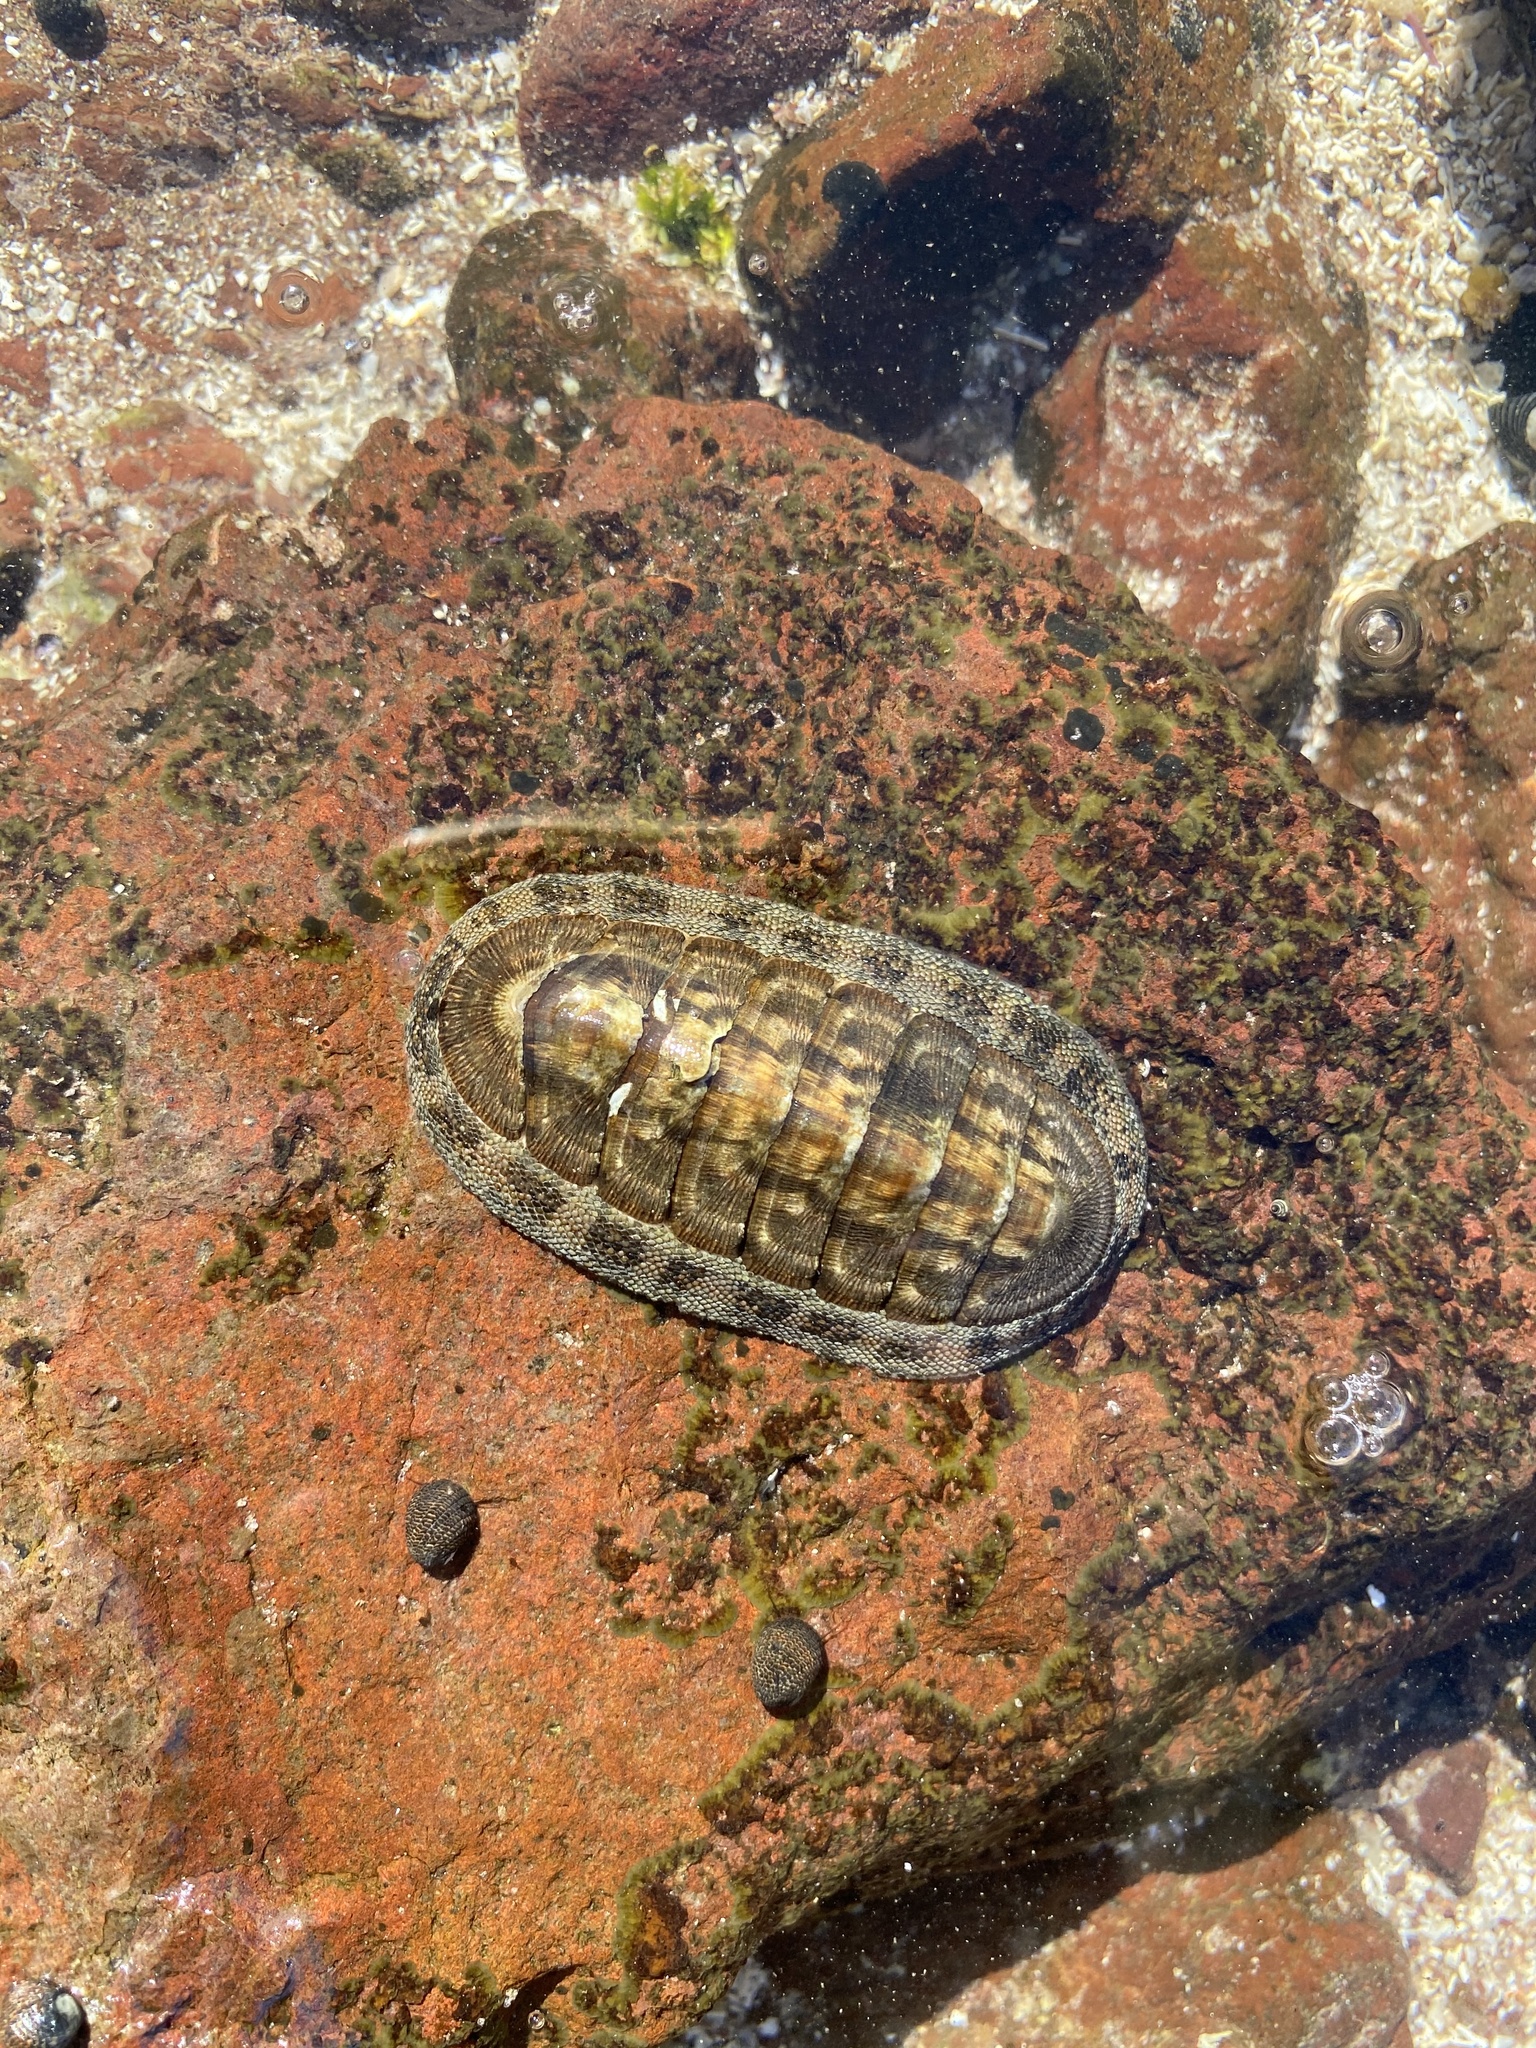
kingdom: Animalia
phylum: Mollusca
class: Polyplacophora
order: Chitonida
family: Chitonidae
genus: Chiton
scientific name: Chiton virgulatus
